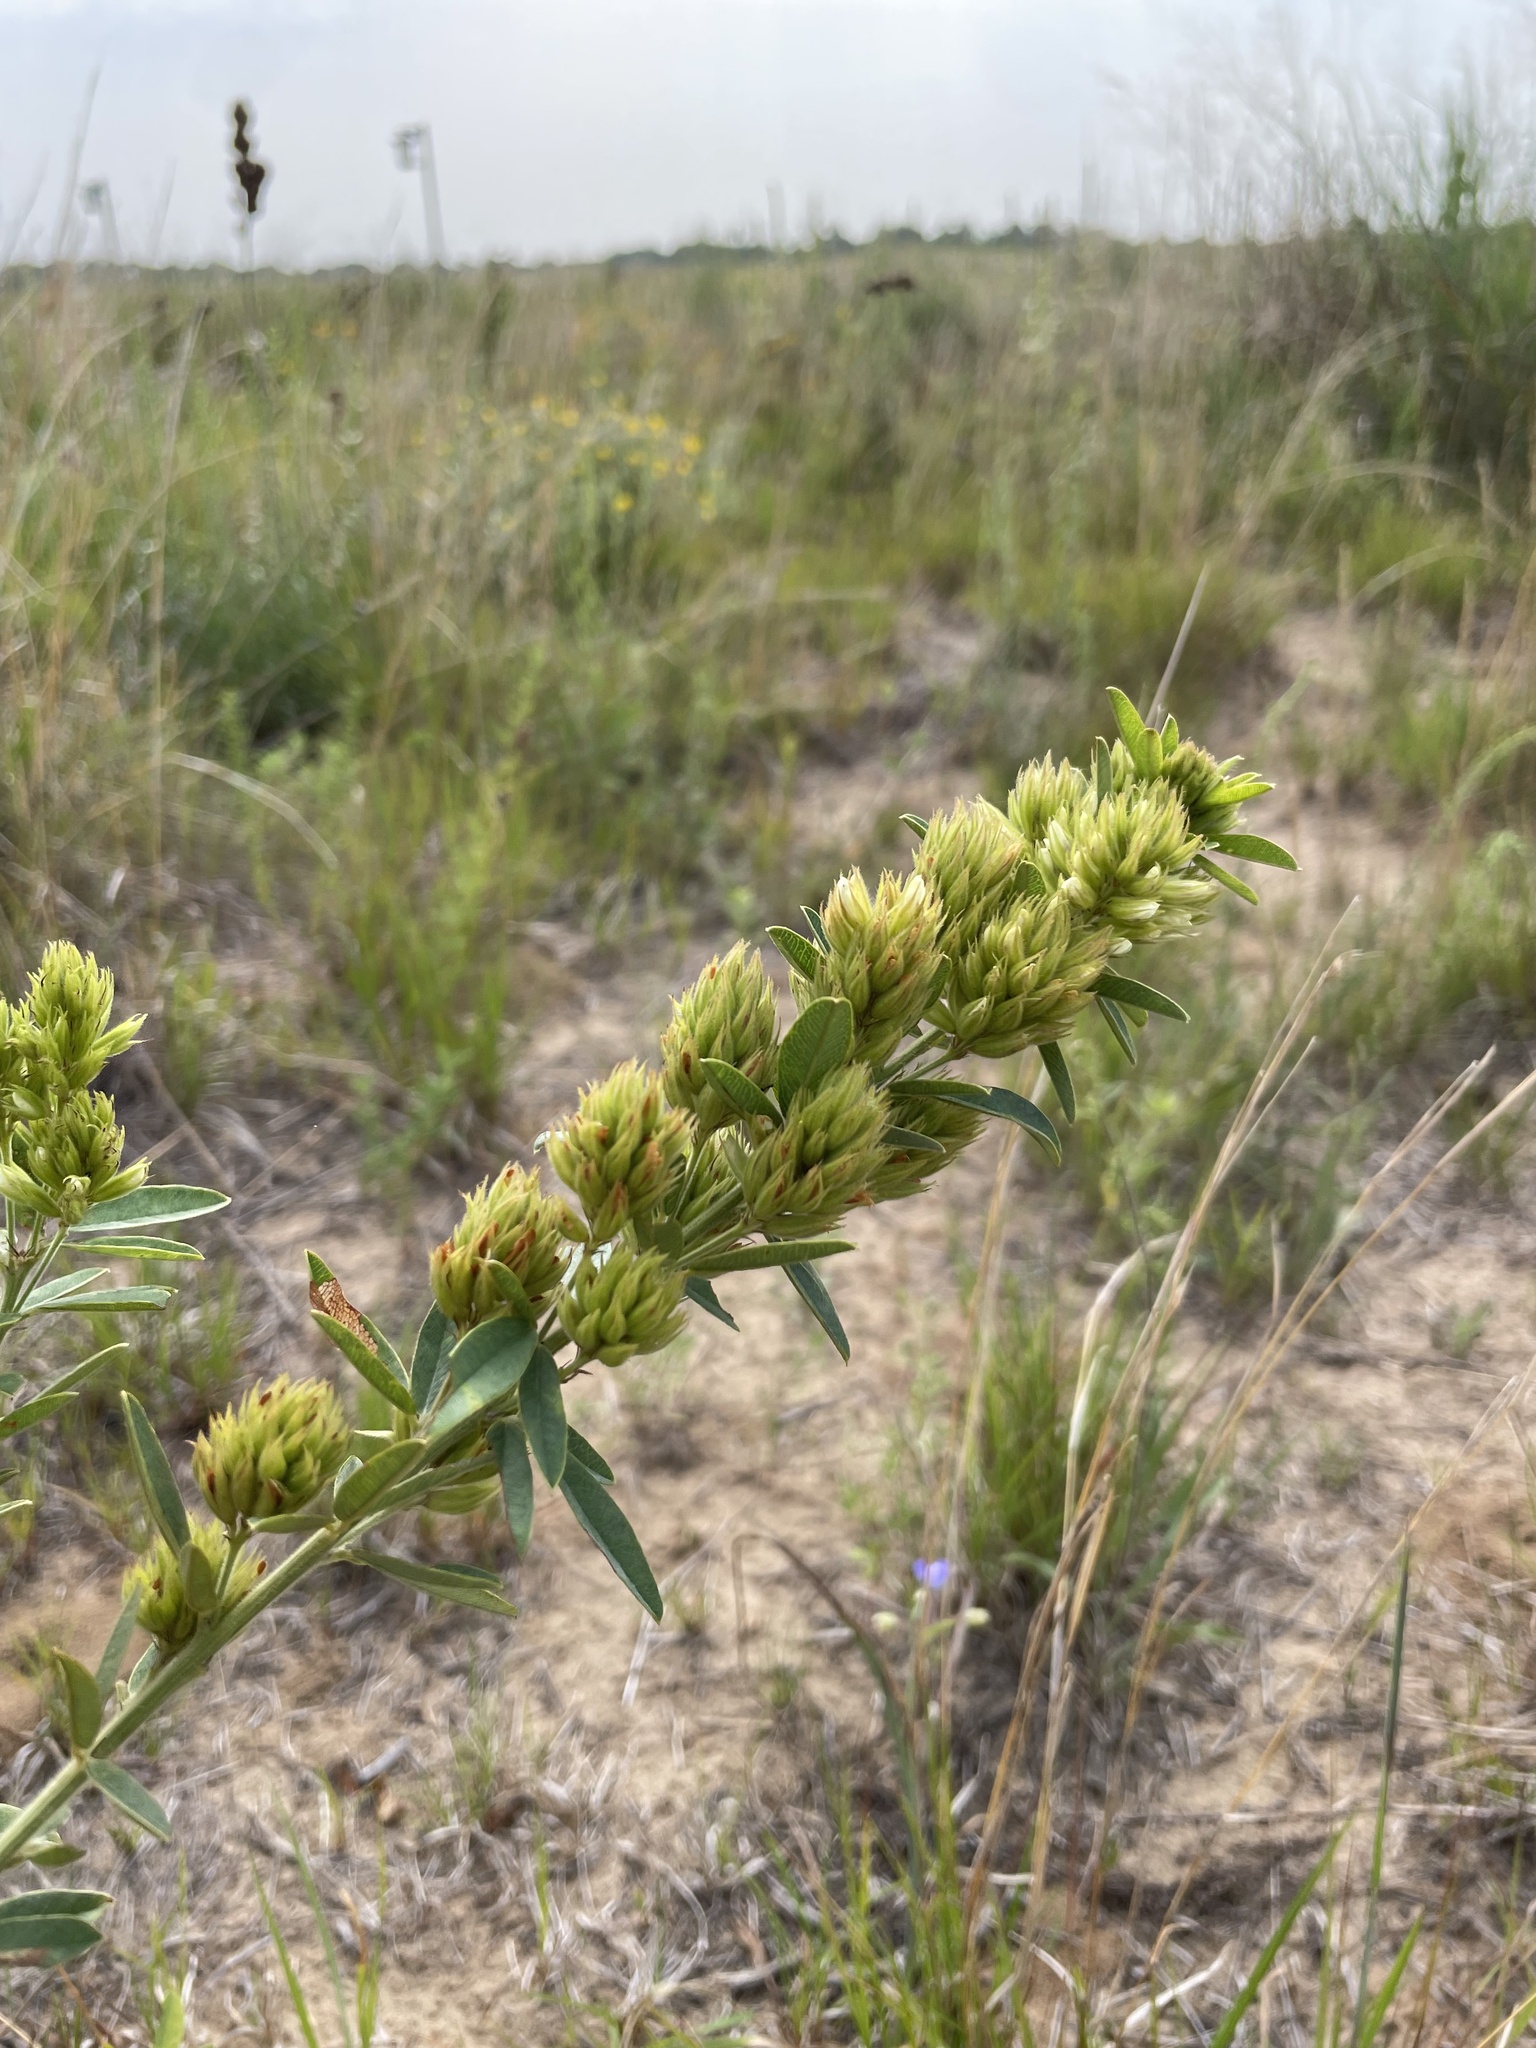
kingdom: Plantae
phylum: Tracheophyta
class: Magnoliopsida
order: Fabales
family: Fabaceae
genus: Lespedeza
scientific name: Lespedeza capitata
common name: Dusty clover
